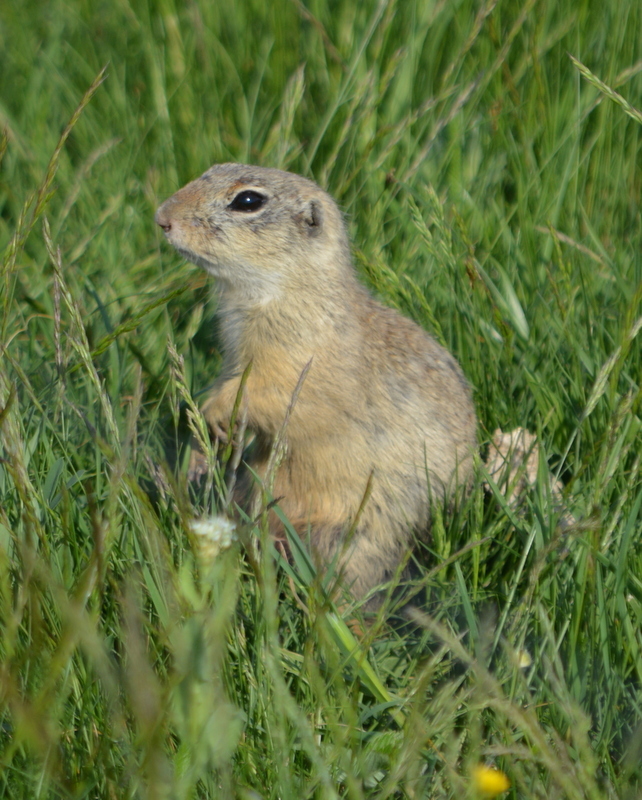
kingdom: Animalia
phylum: Chordata
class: Mammalia
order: Rodentia
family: Sciuridae
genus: Spermophilus
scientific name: Spermophilus citellus
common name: European ground squirrel
